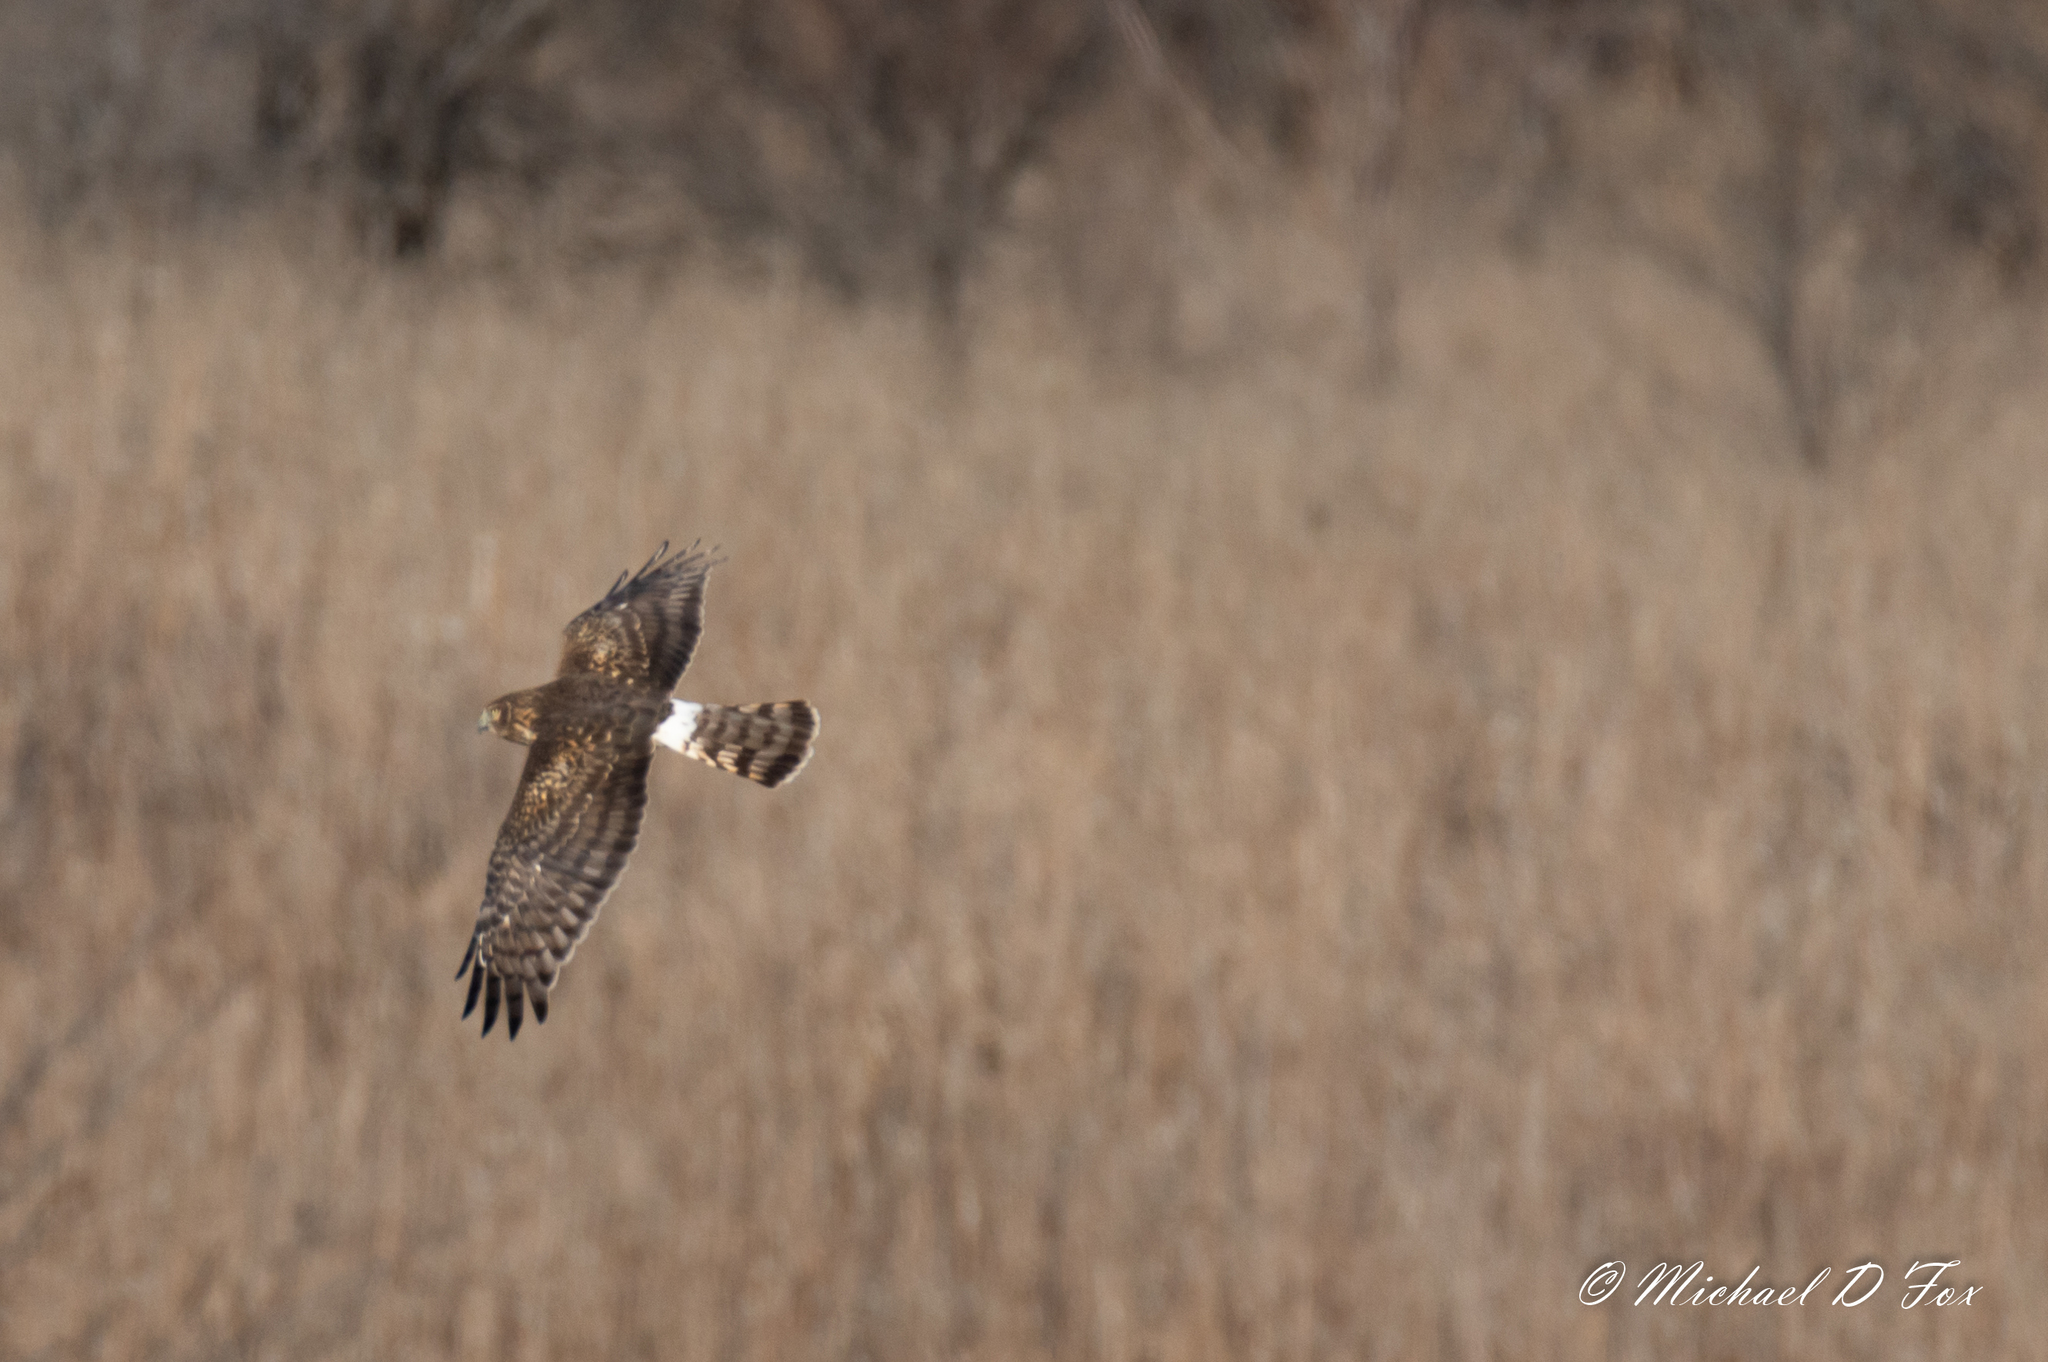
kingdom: Animalia
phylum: Chordata
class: Aves
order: Accipitriformes
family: Accipitridae
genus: Circus
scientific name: Circus cyaneus
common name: Hen harrier
